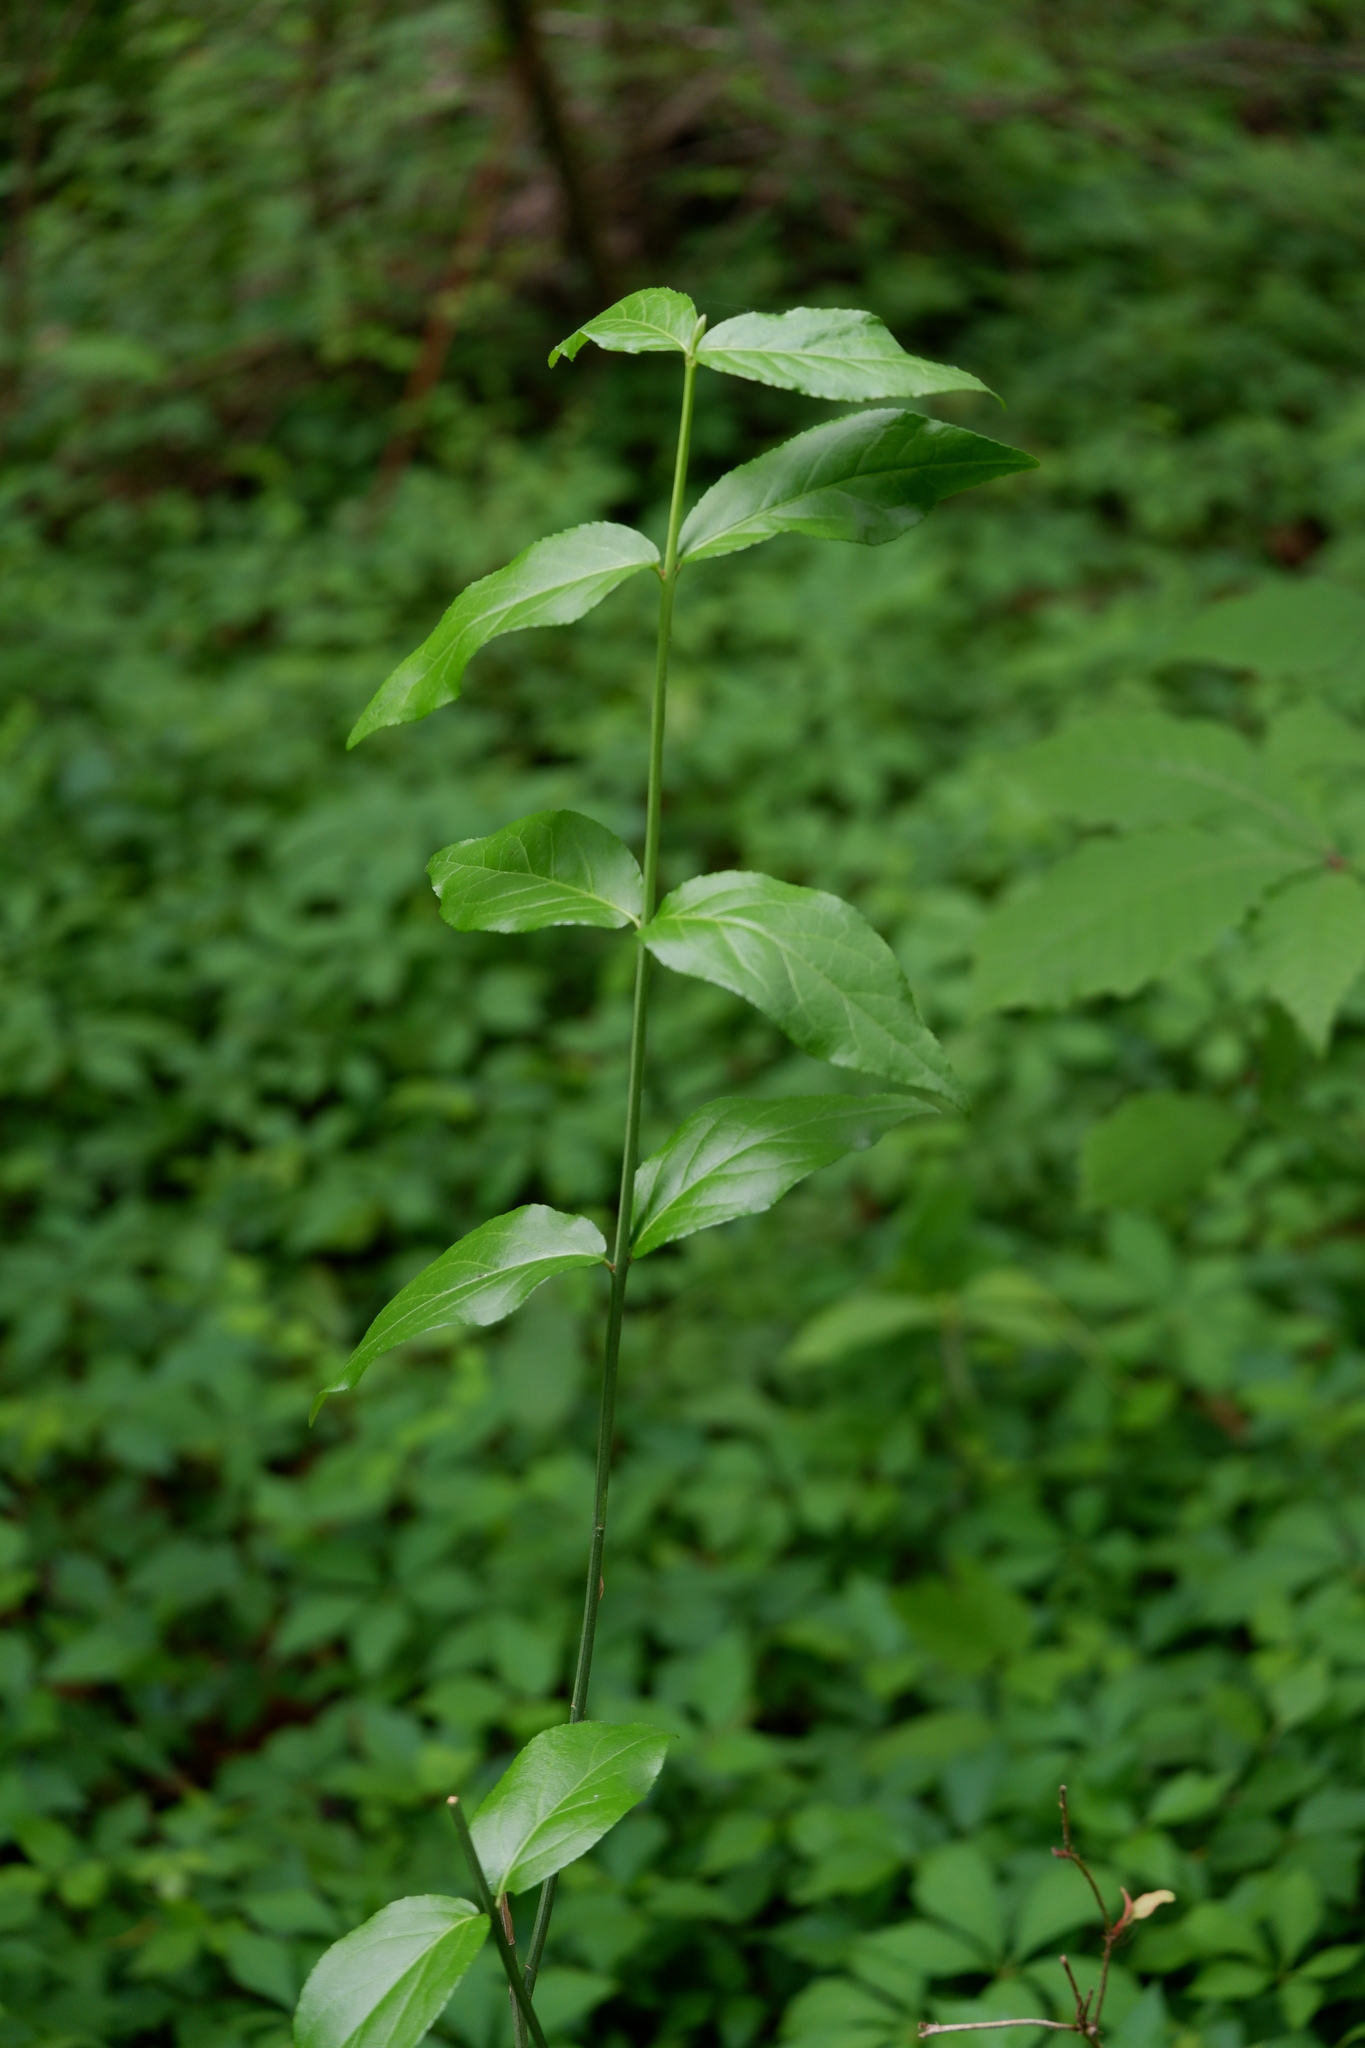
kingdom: Plantae
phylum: Tracheophyta
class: Magnoliopsida
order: Celastrales
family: Celastraceae
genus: Euonymus
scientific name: Euonymus americanus
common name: Bursting-heart
